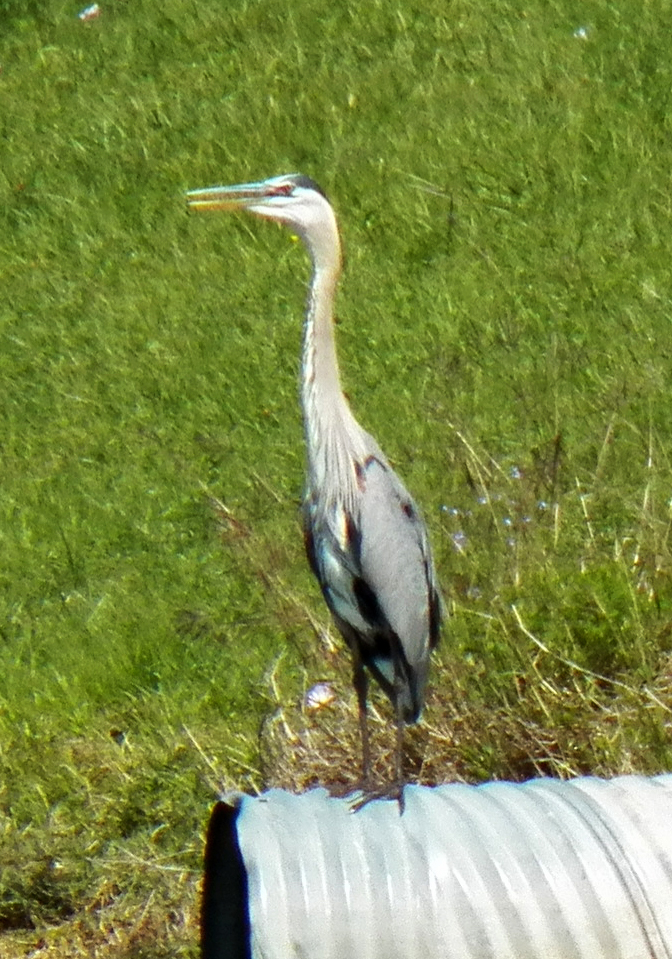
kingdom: Animalia
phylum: Chordata
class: Aves
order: Pelecaniformes
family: Ardeidae
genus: Ardea
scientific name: Ardea herodias
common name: Great blue heron
